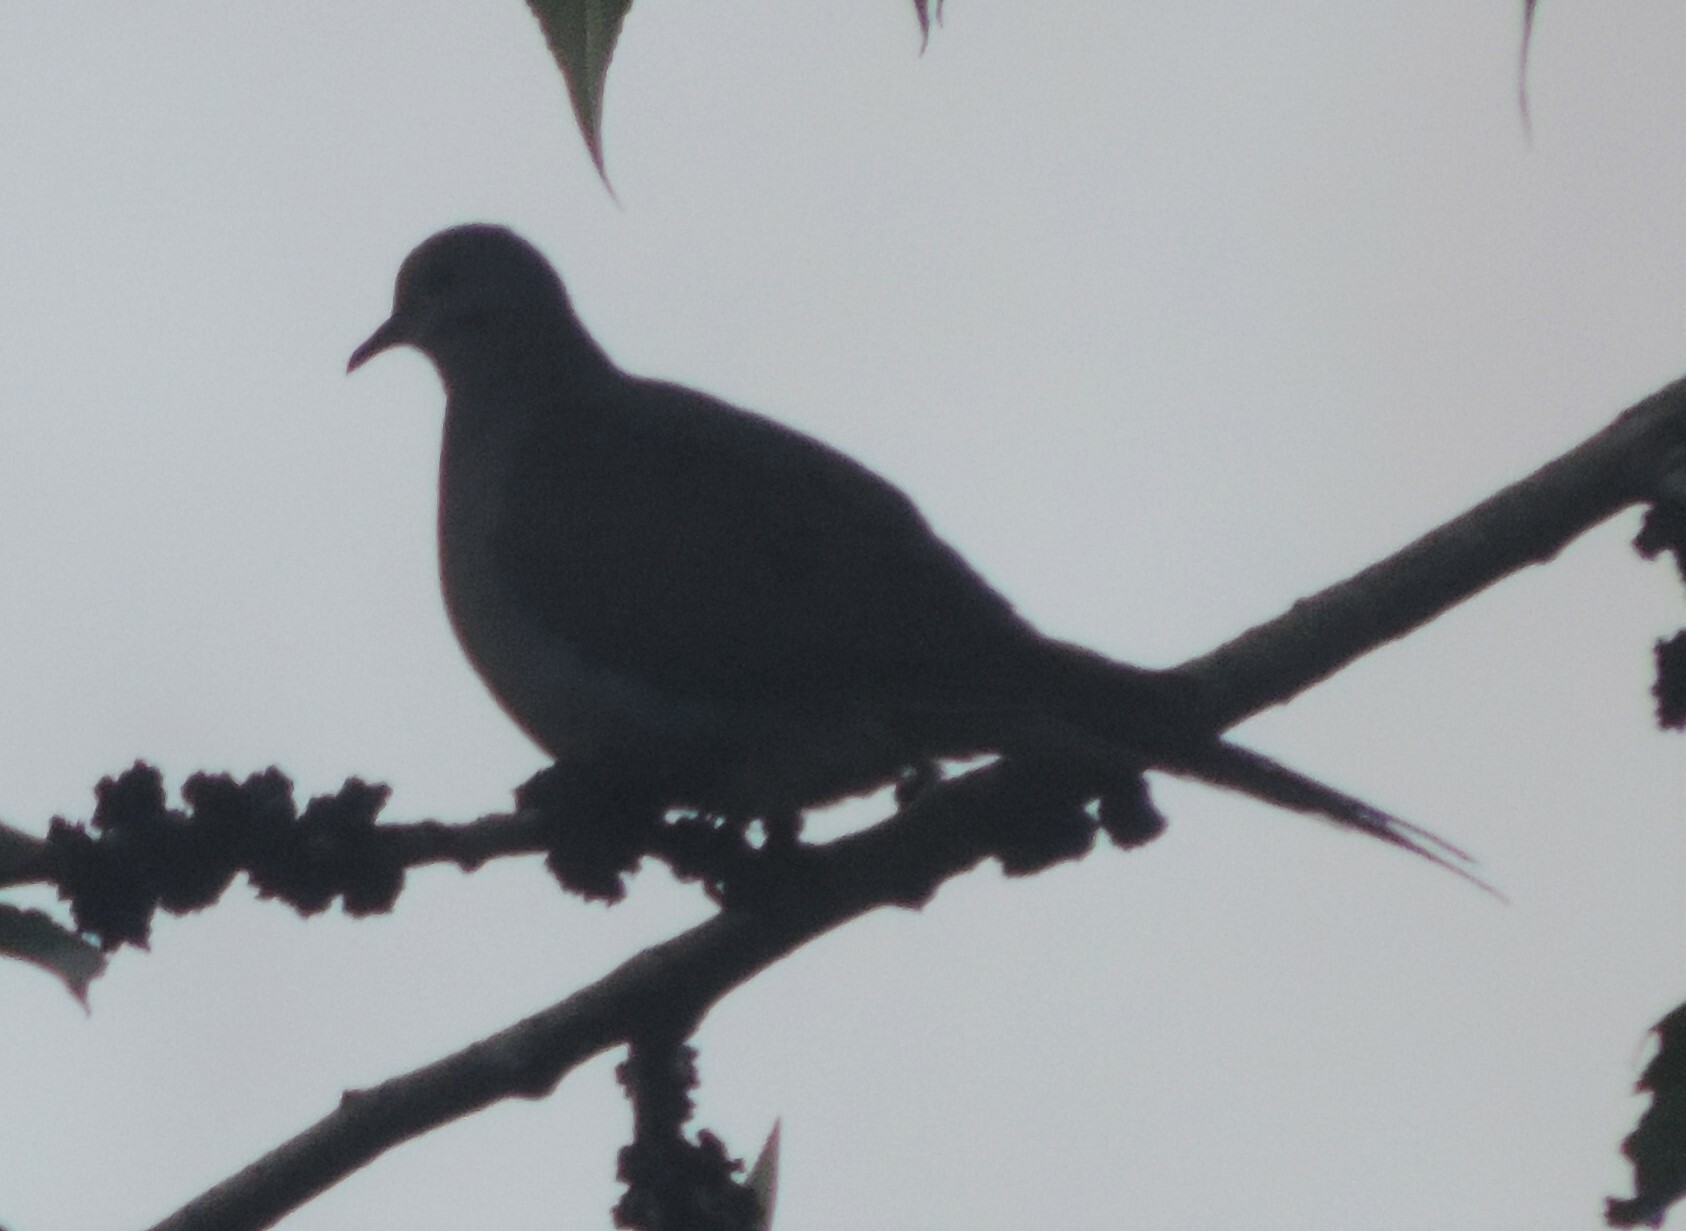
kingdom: Animalia
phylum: Chordata
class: Aves
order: Columbiformes
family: Columbidae
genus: Zenaida
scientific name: Zenaida macroura
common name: Mourning dove
